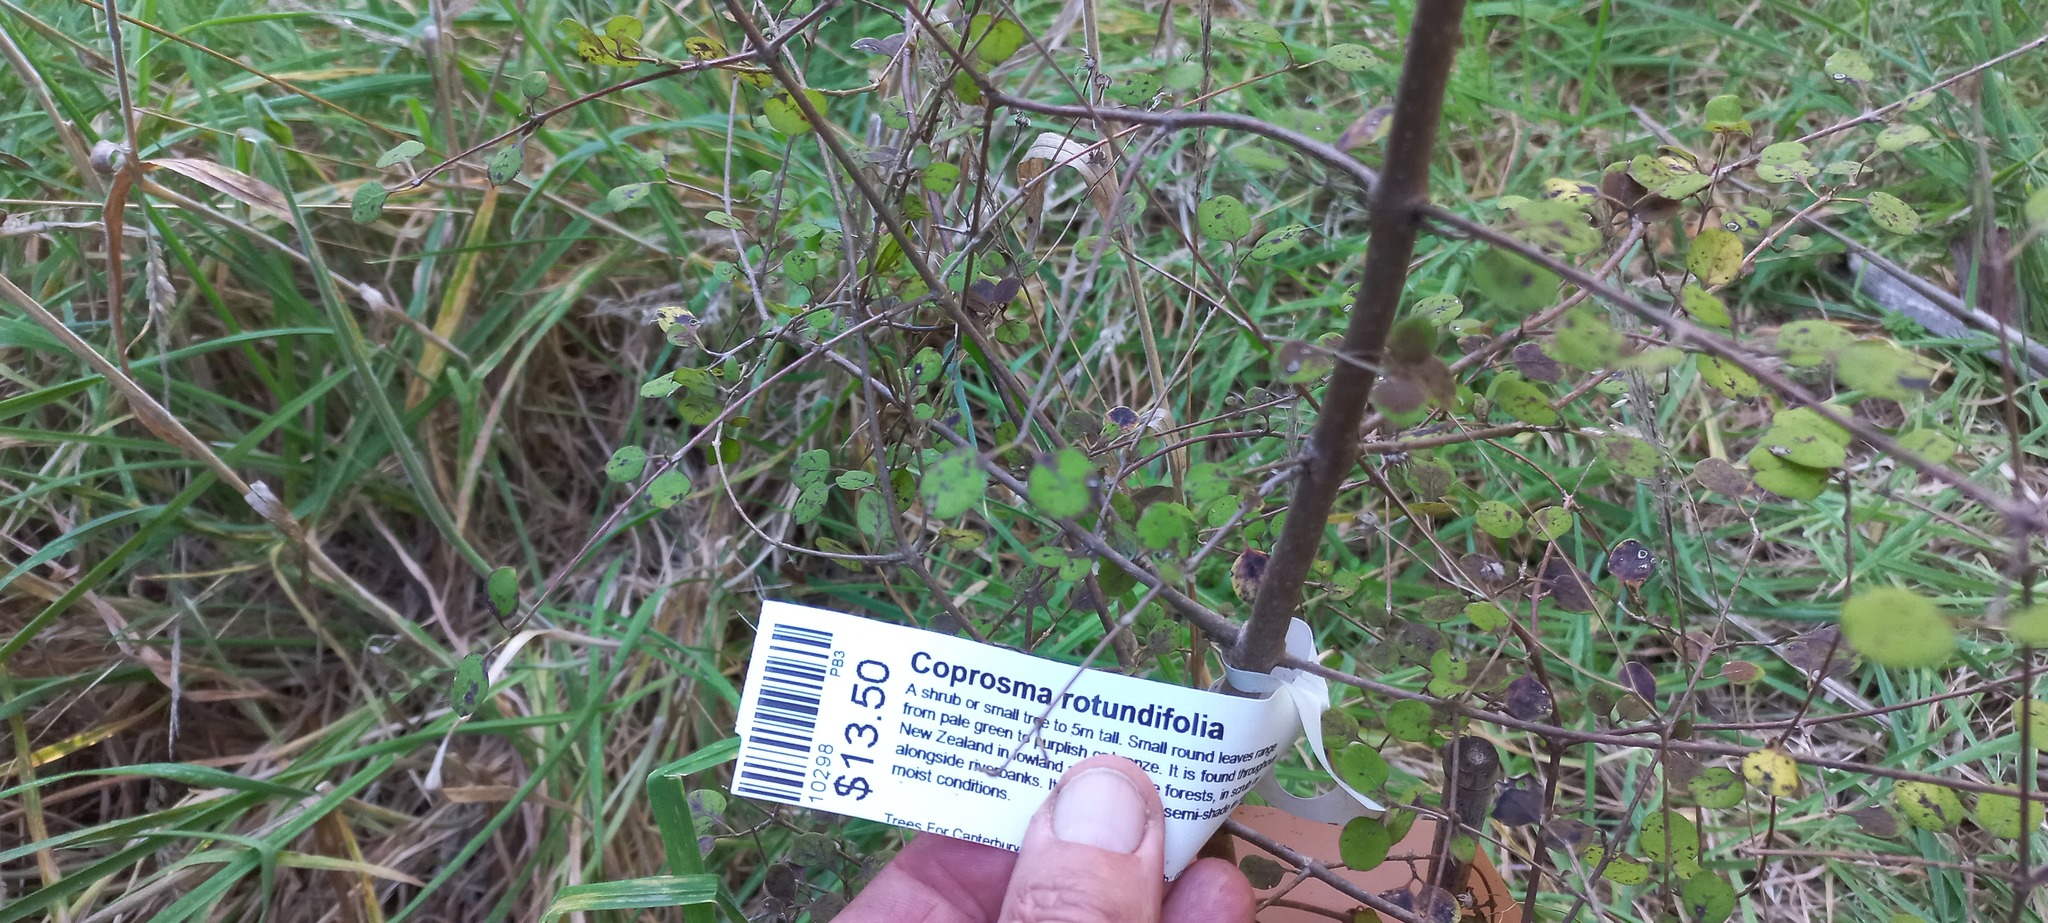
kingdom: Plantae
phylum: Tracheophyta
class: Magnoliopsida
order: Gentianales
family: Rubiaceae
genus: Coprosma
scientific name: Coprosma rotundifolia
